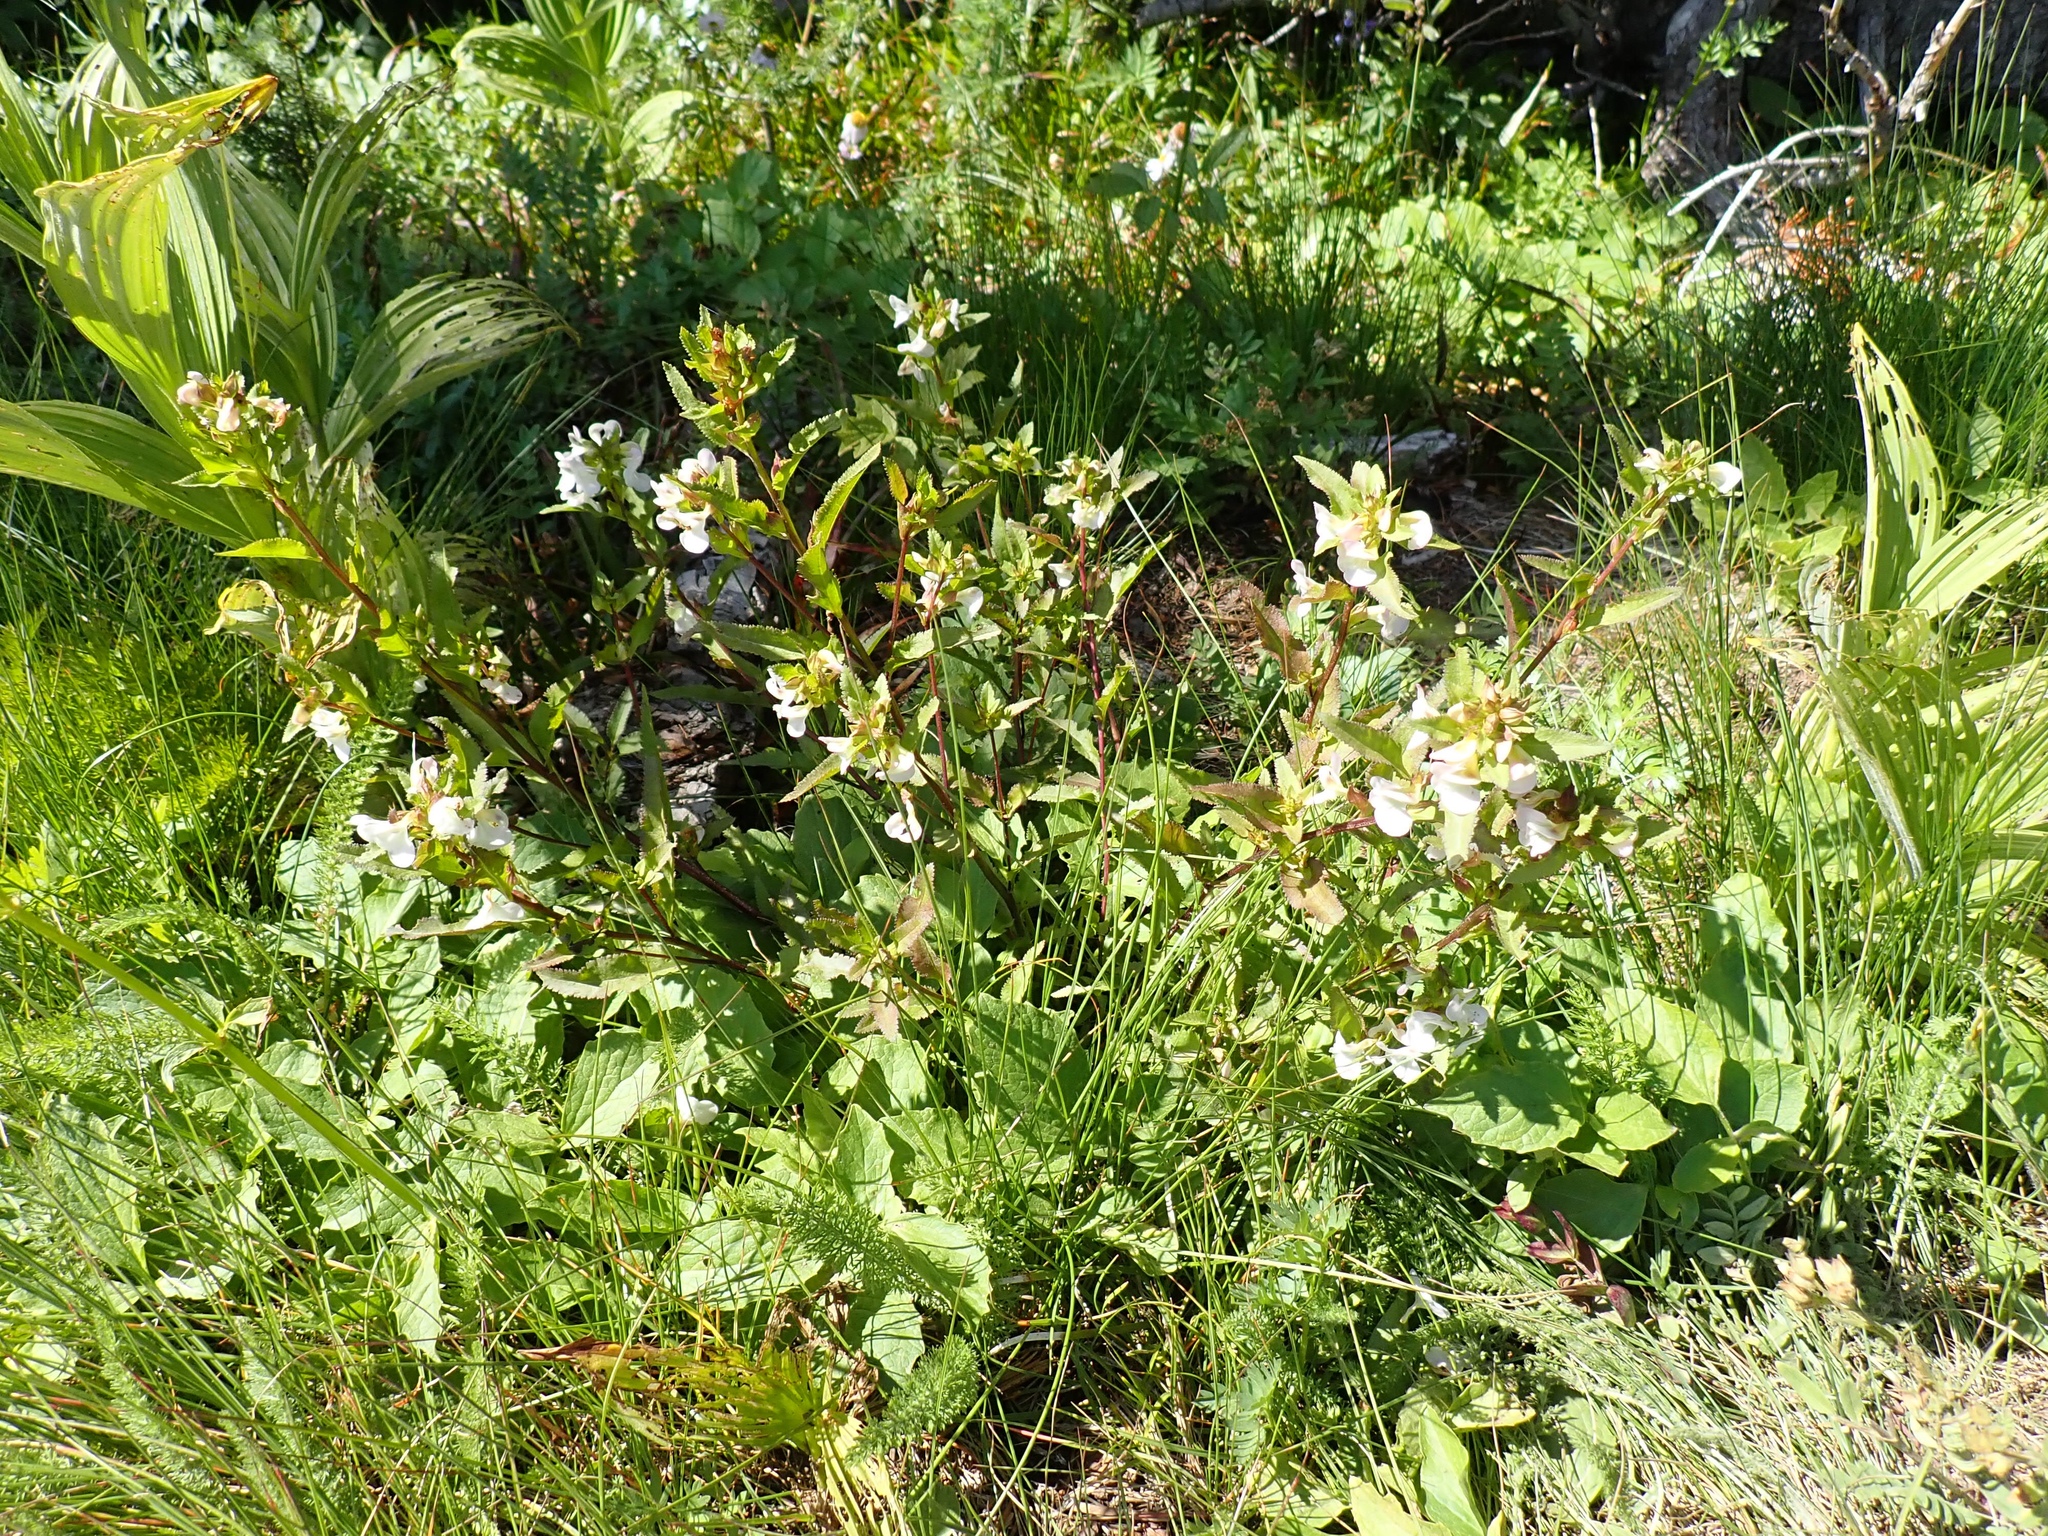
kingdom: Plantae
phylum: Tracheophyta
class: Magnoliopsida
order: Lamiales
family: Orobanchaceae
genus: Pedicularis
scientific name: Pedicularis racemosa
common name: Leafy lousewort
